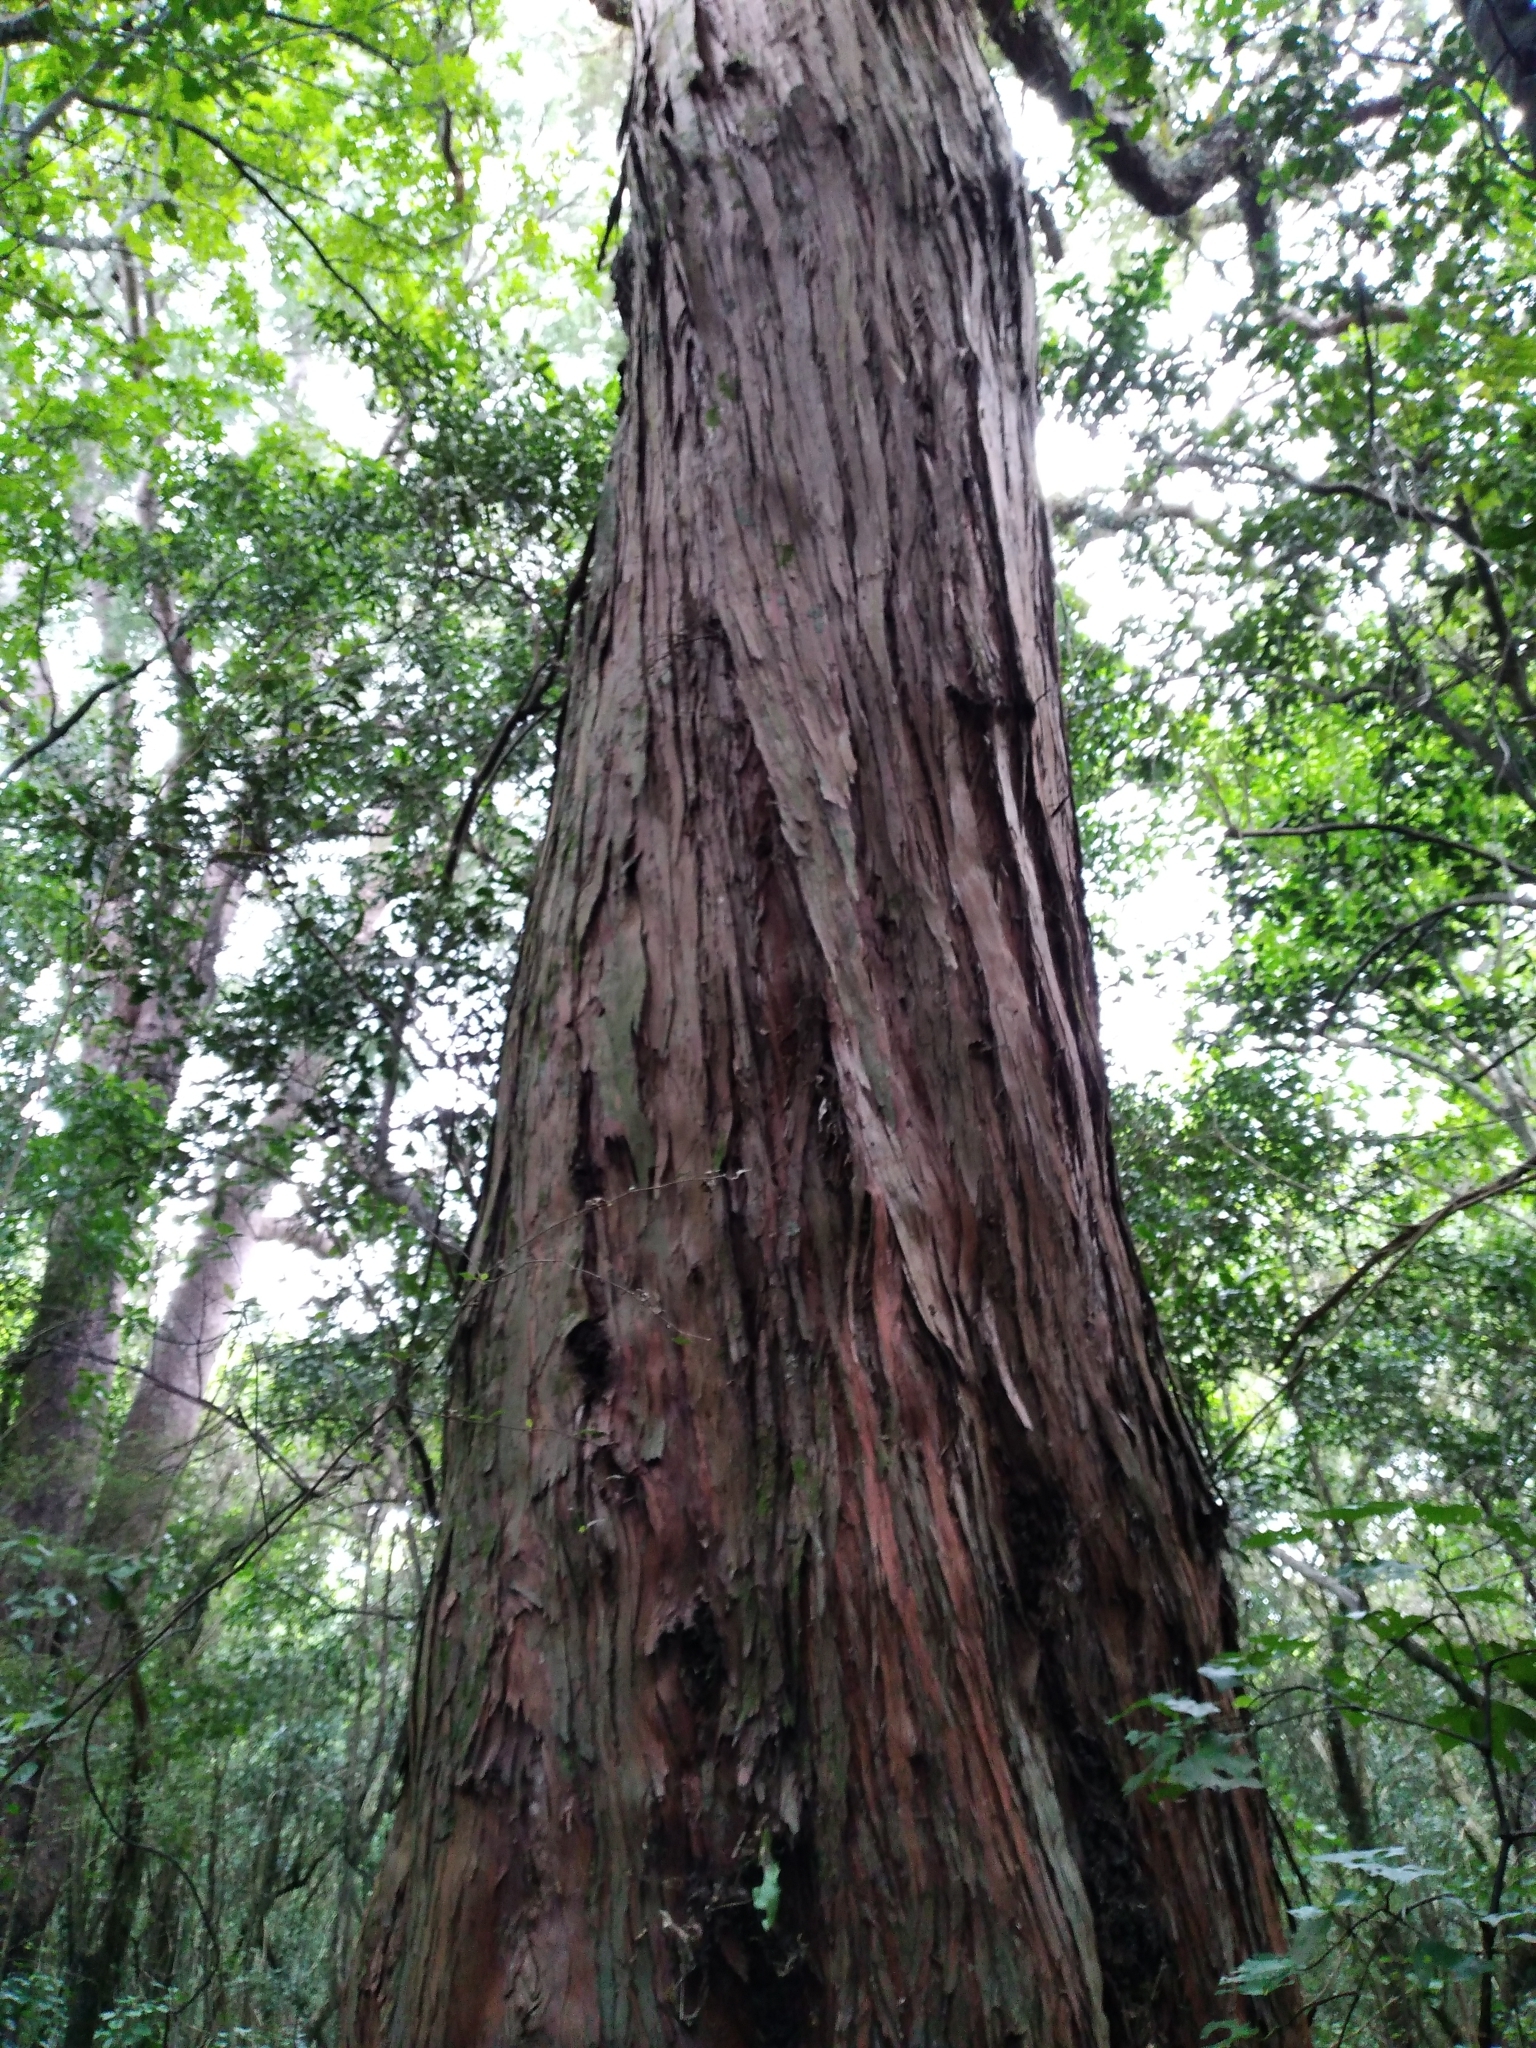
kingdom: Plantae
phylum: Tracheophyta
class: Pinopsida
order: Pinales
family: Podocarpaceae
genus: Podocarpus
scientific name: Podocarpus totara
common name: Totara
